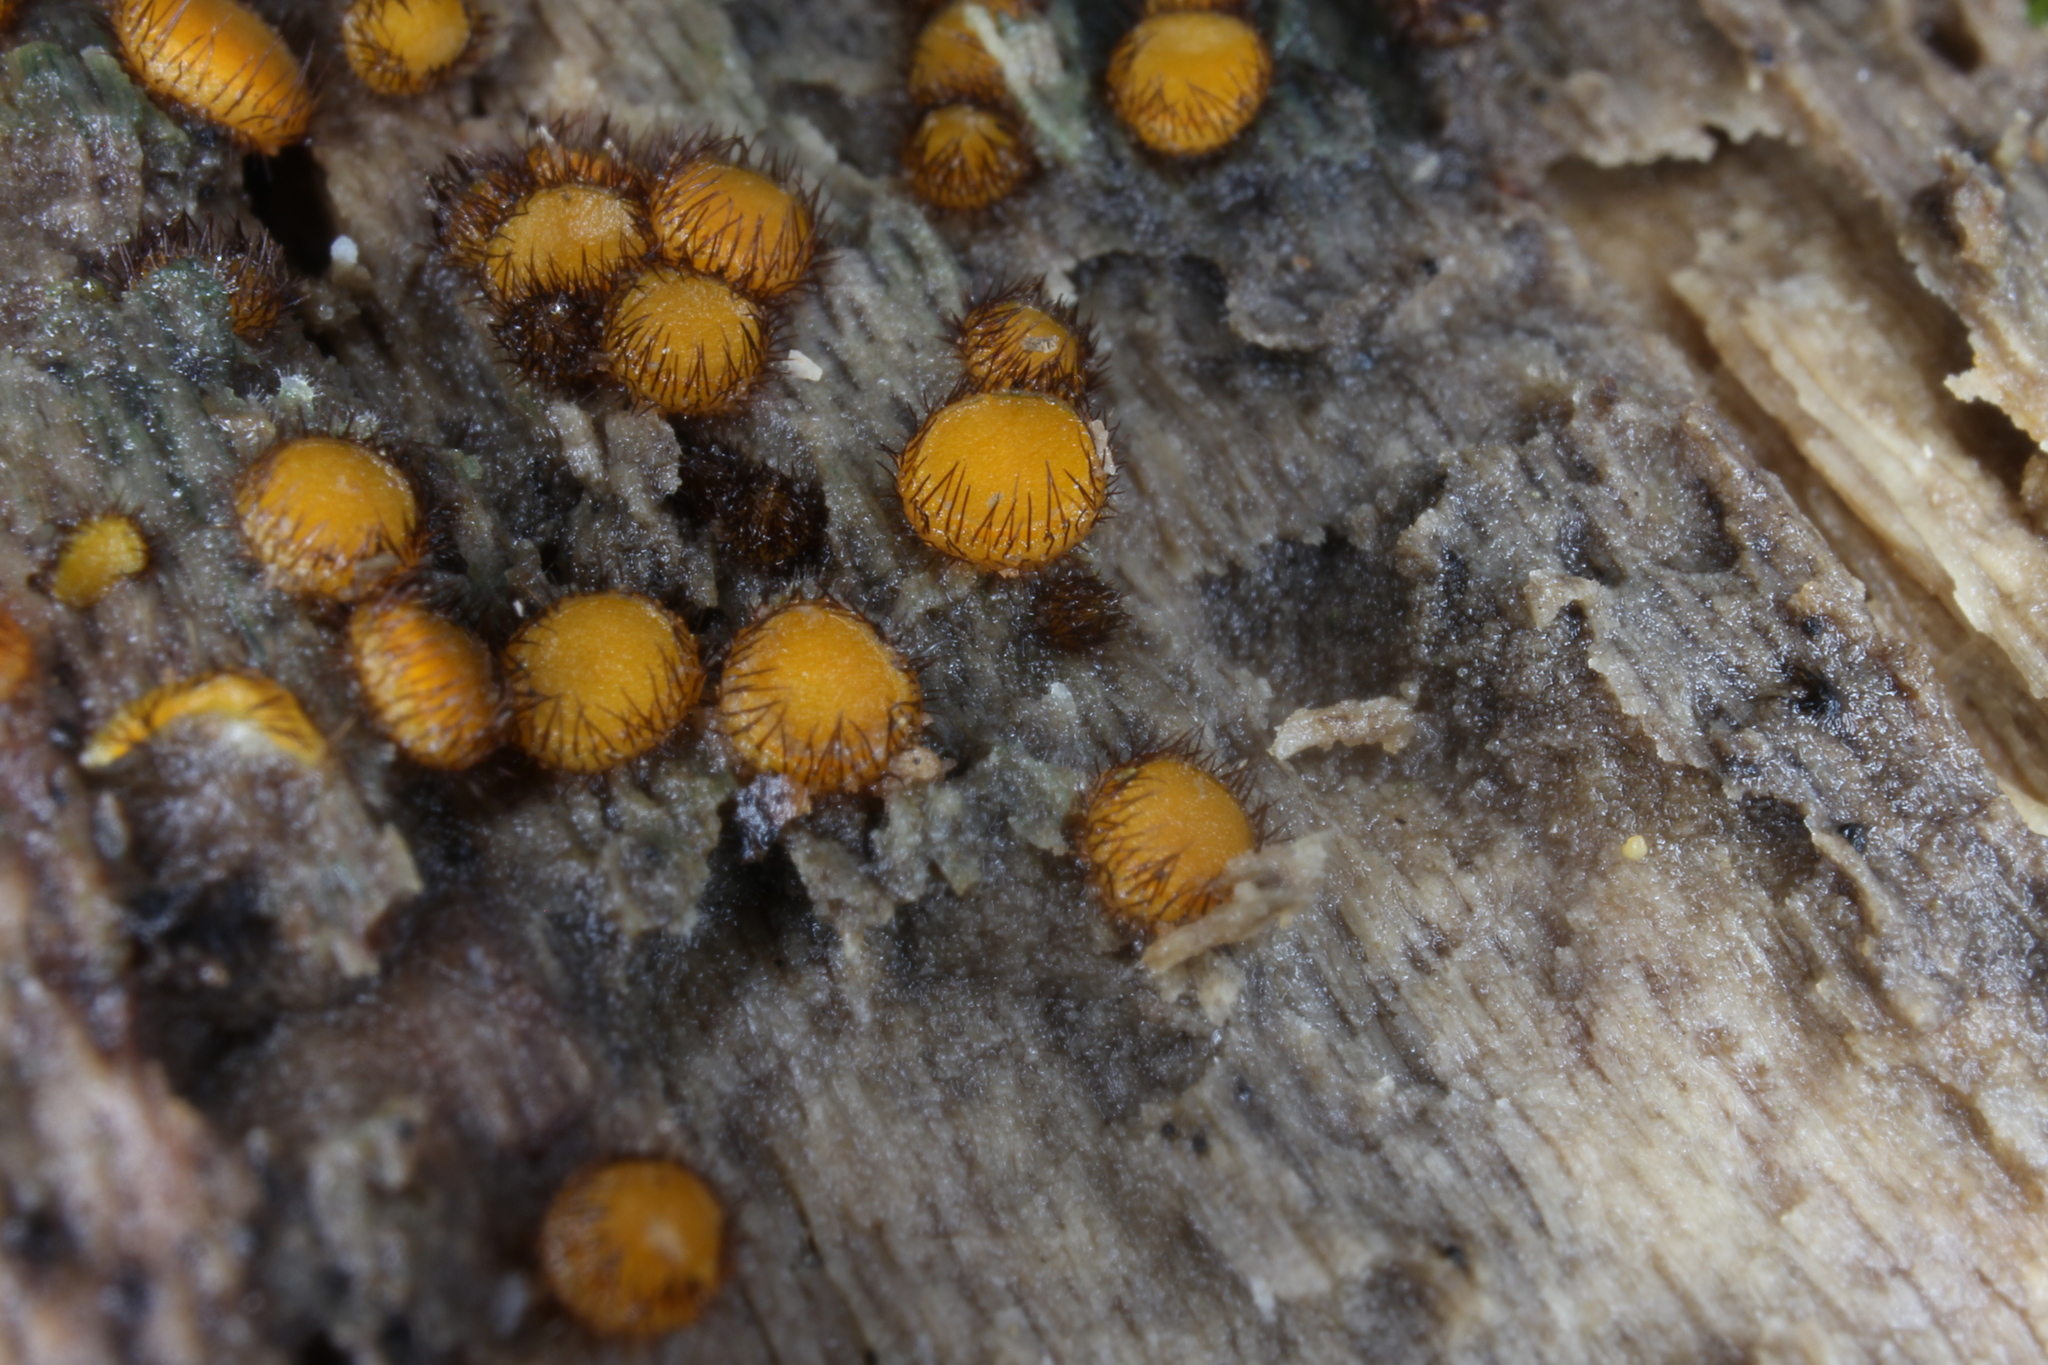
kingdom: Fungi
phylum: Ascomycota
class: Pezizomycetes
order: Pezizales
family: Pyronemataceae
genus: Scutellinia
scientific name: Scutellinia setosa
